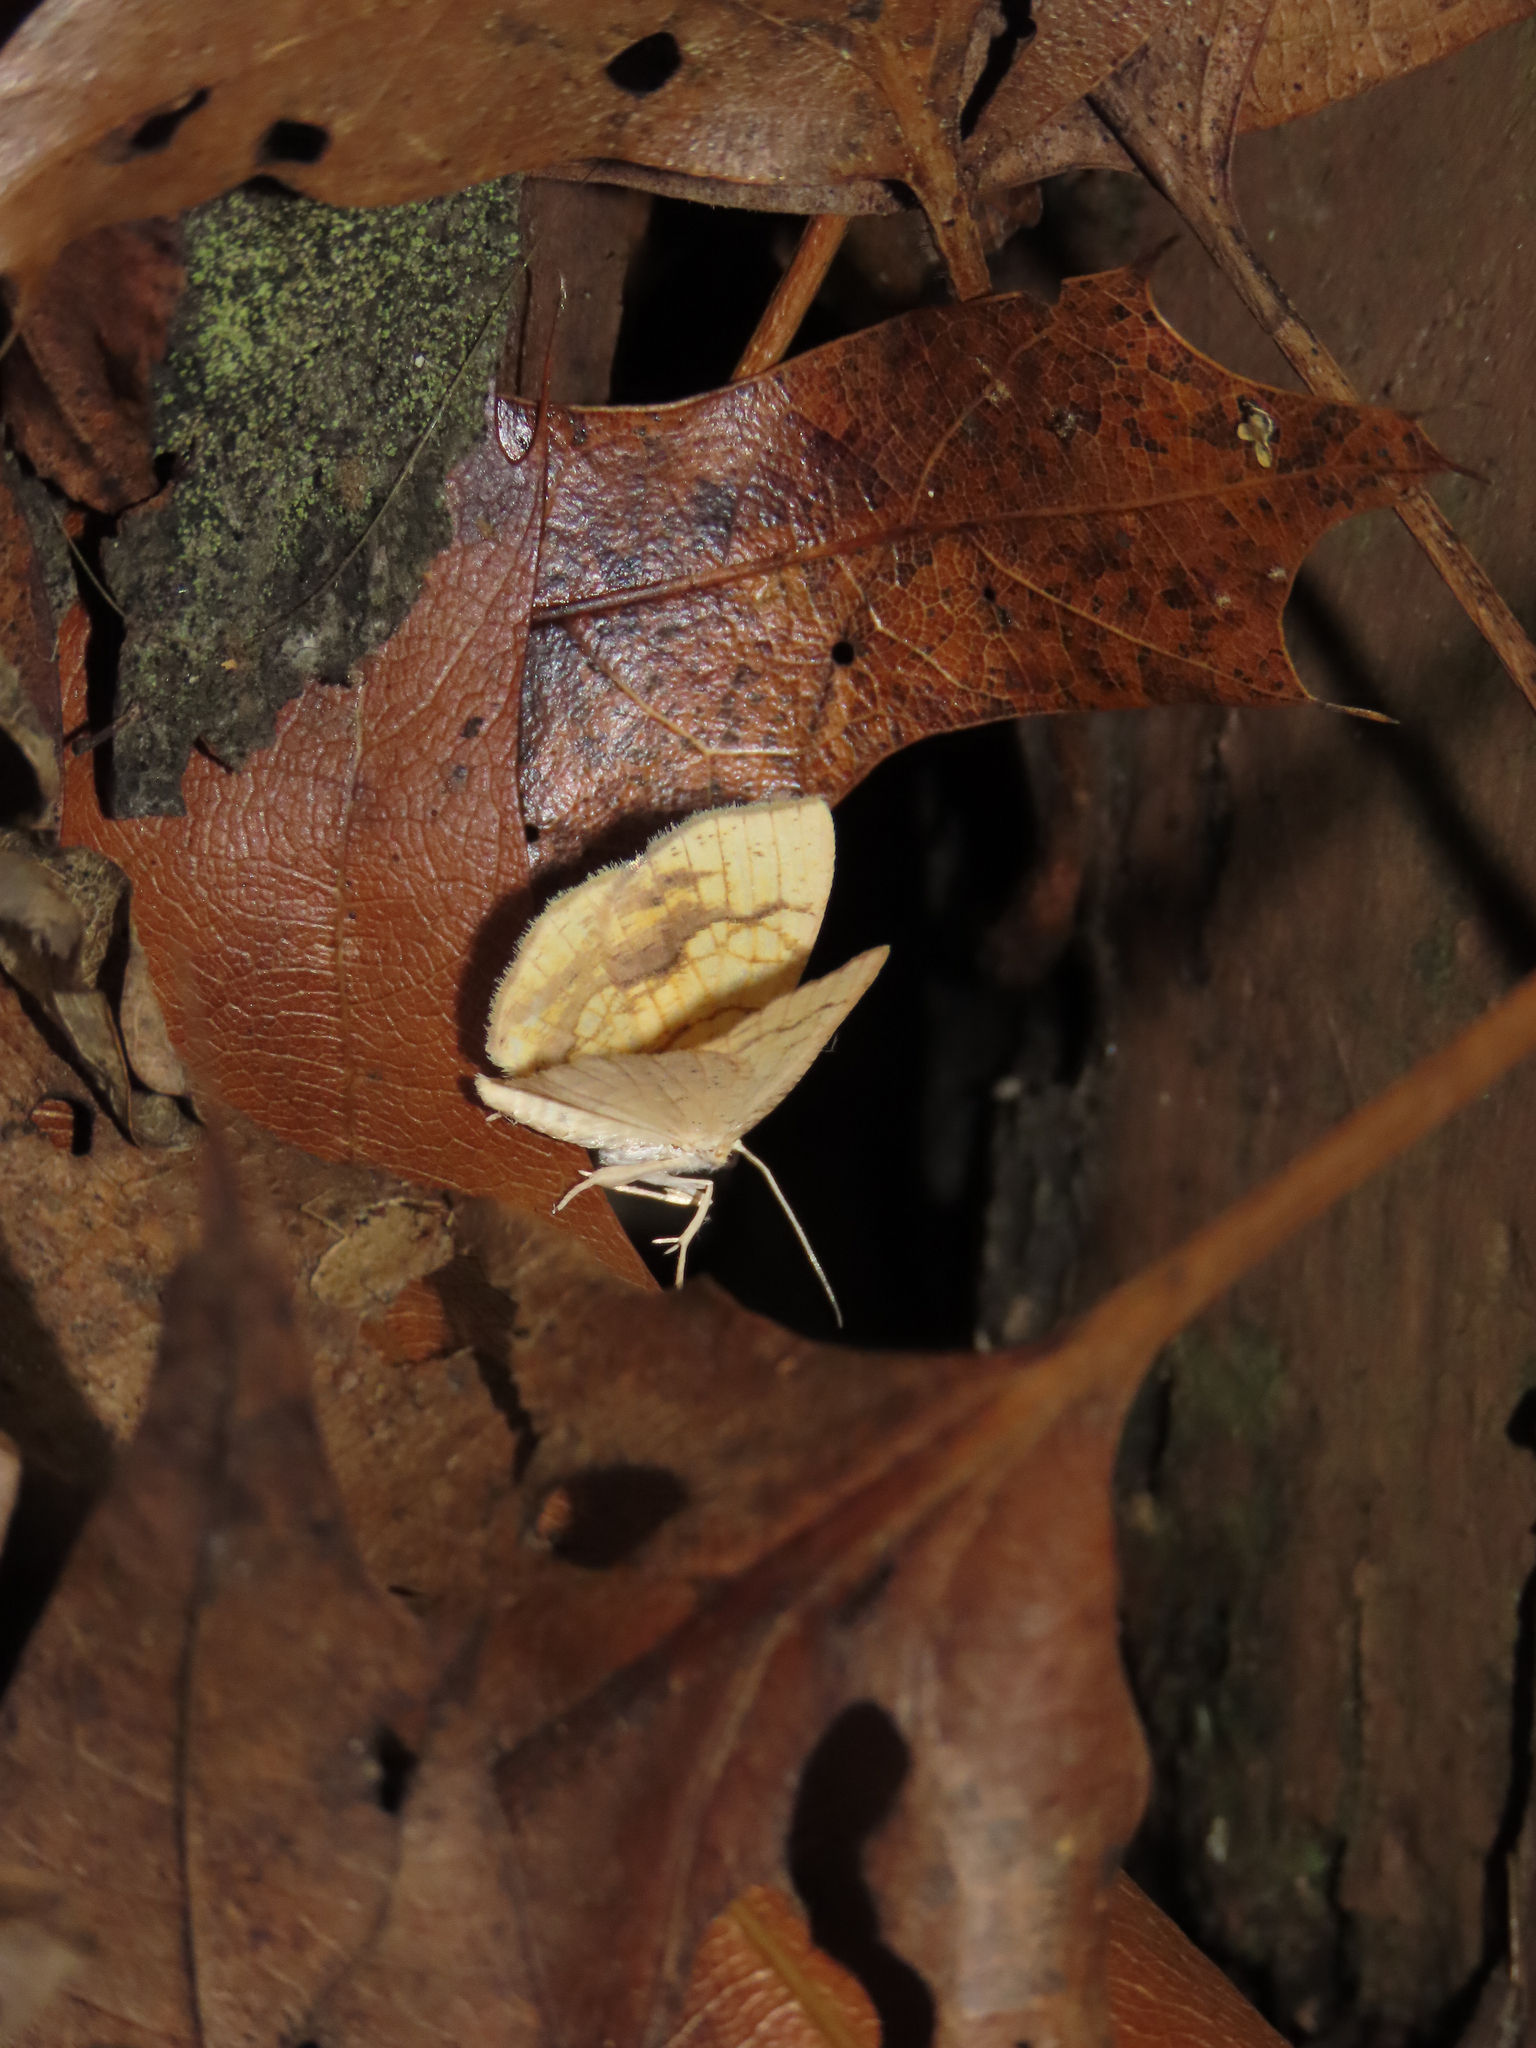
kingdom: Animalia
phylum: Arthropoda
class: Insecta
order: Lepidoptera
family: Geometridae
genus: Nematocampa
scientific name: Nematocampa resistaria
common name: Horned spanworm moth
